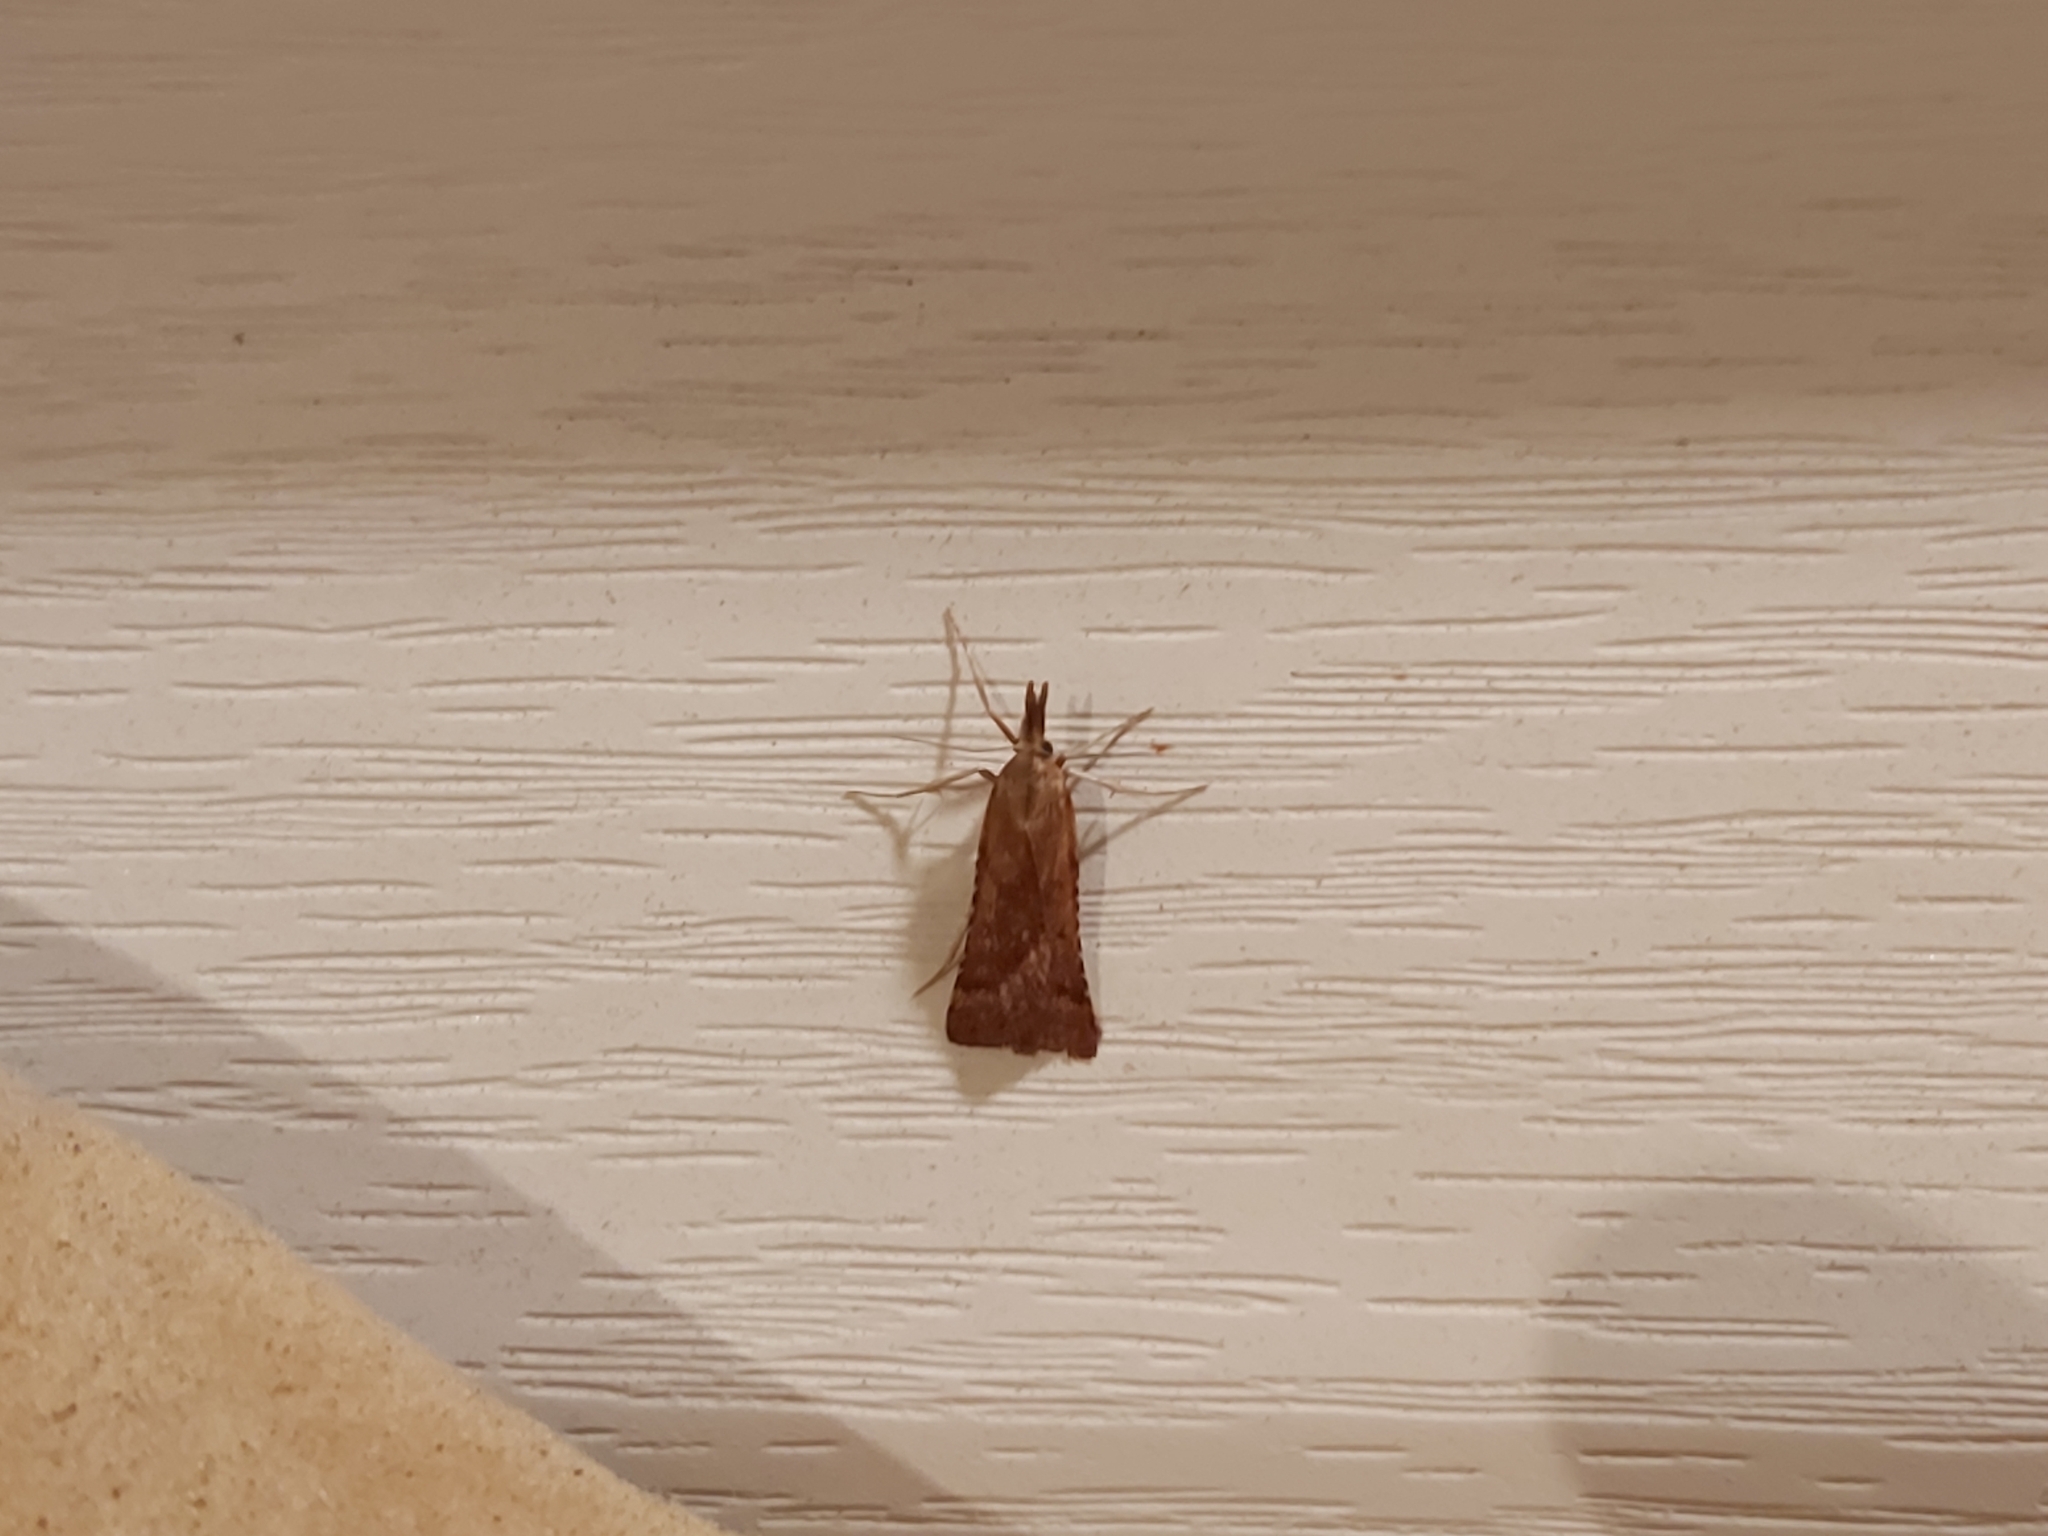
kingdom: Animalia
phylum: Arthropoda
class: Insecta
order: Lepidoptera
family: Pyralidae
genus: Synaphe
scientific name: Synaphe punctalis
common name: Long-legged tabby
